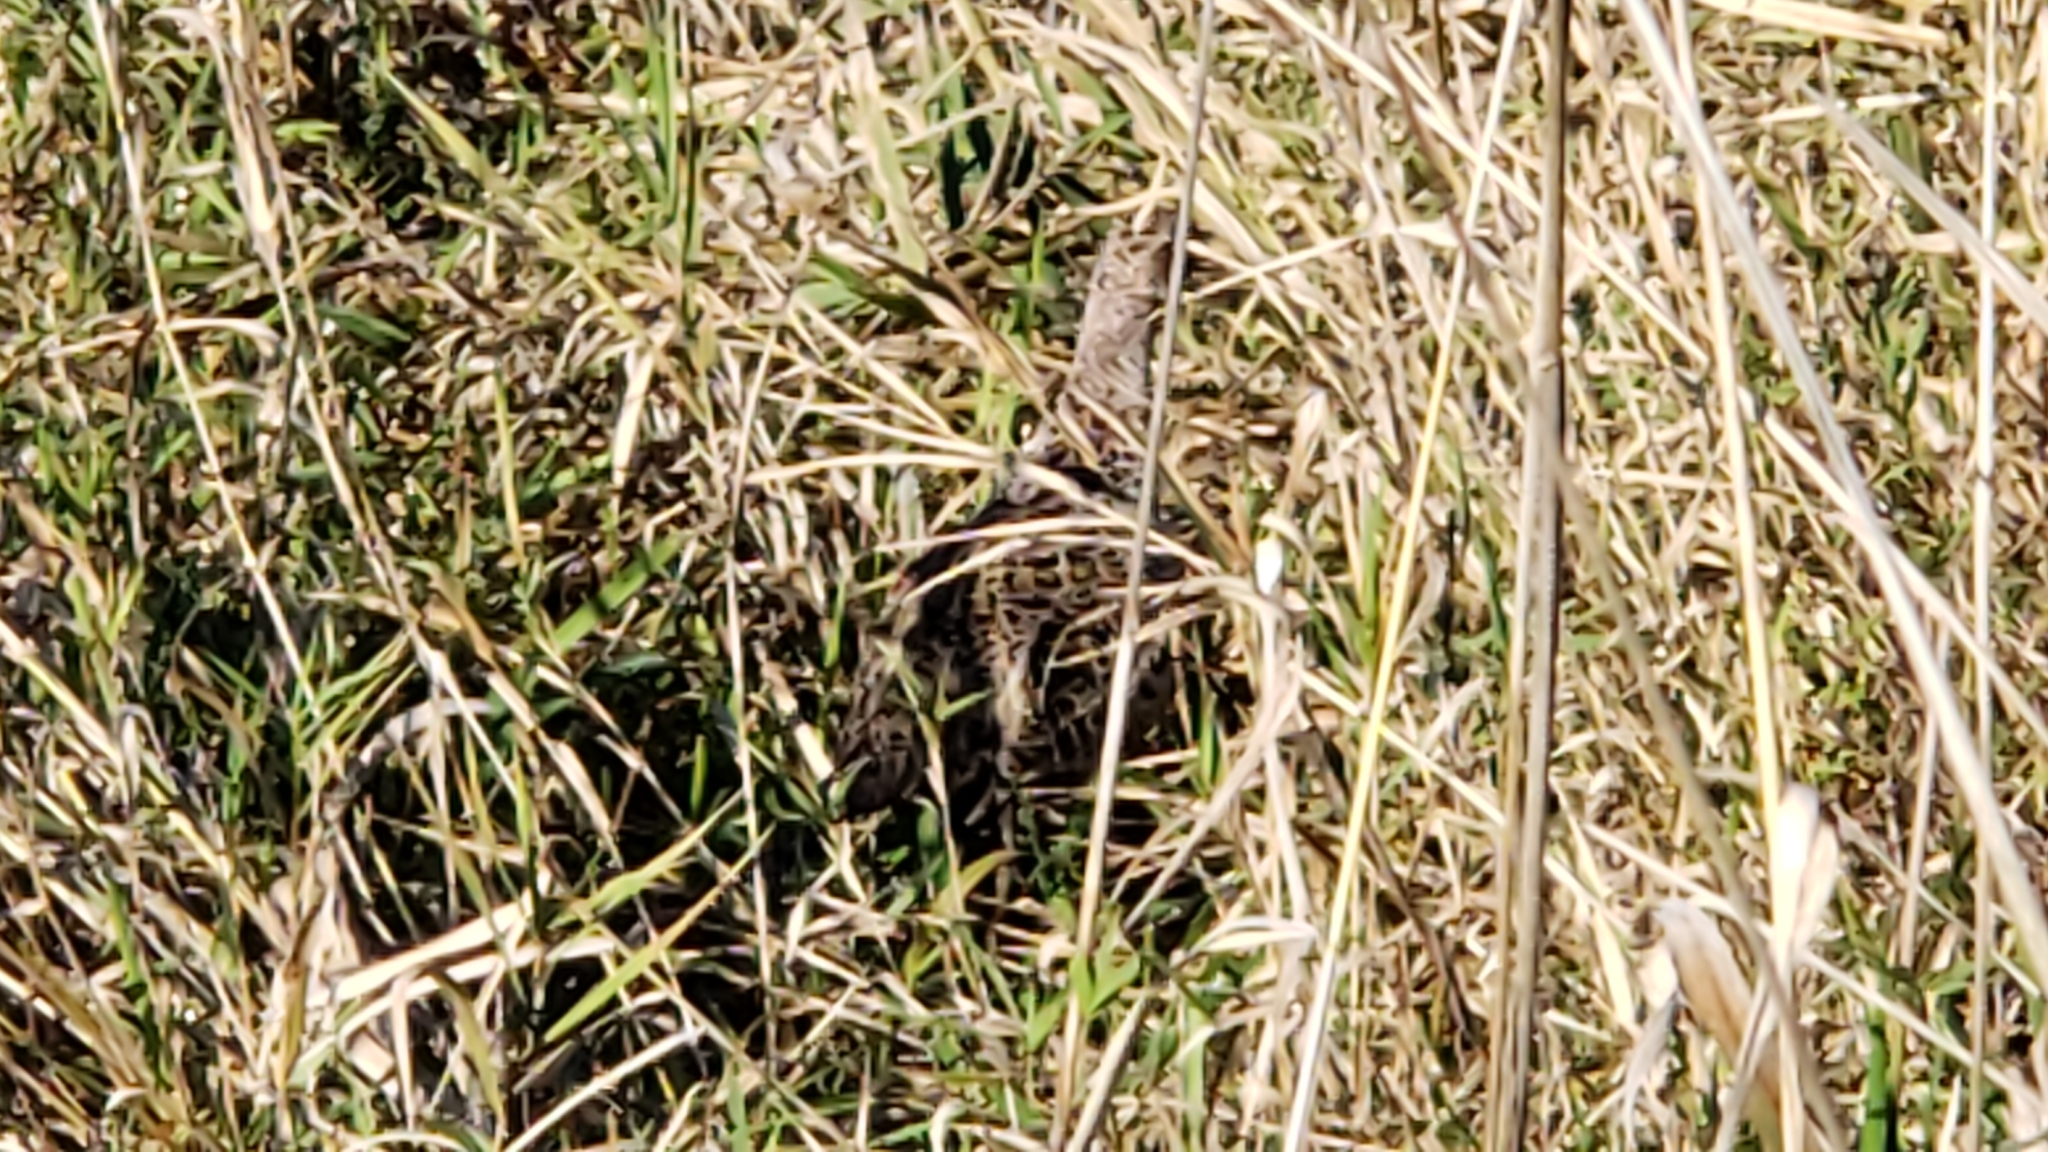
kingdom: Animalia
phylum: Chordata
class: Aves
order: Galliformes
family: Phasianidae
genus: Phasianus
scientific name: Phasianus colchicus
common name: Common pheasant
